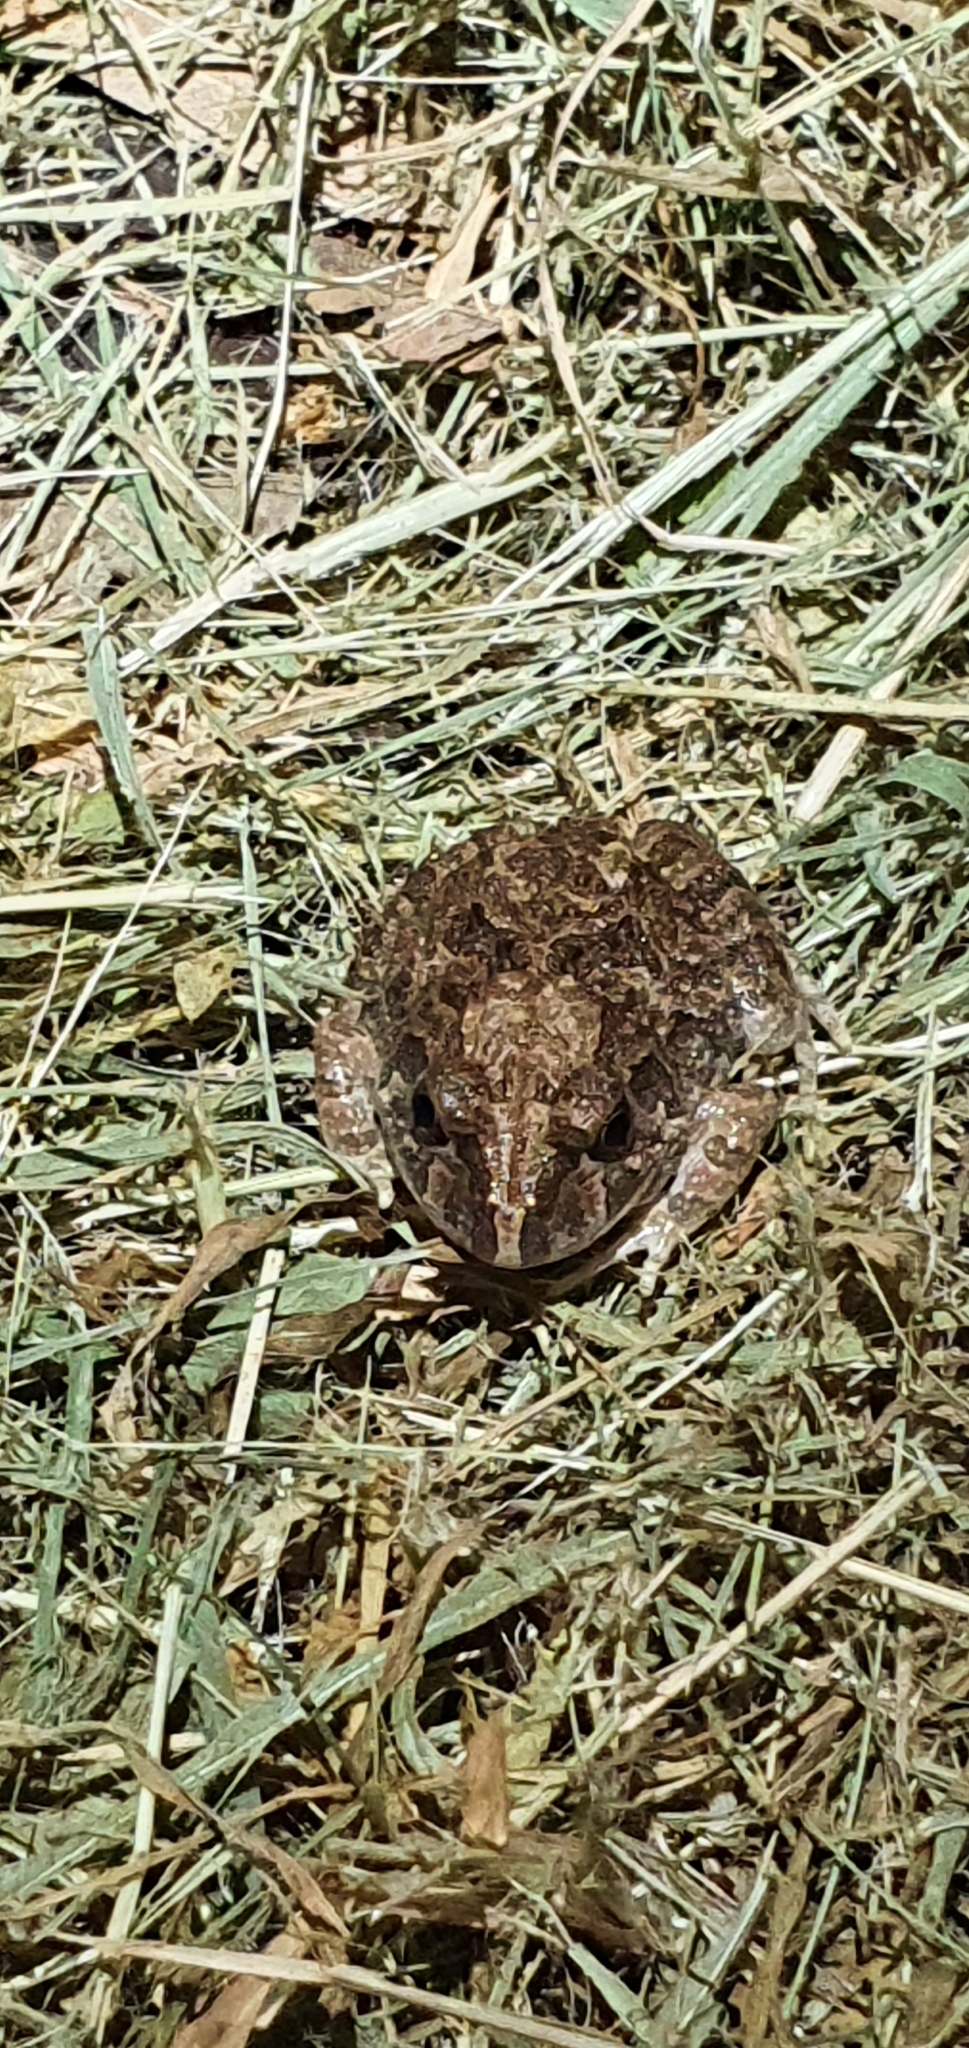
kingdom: Animalia
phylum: Chordata
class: Amphibia
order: Anura
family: Limnodynastidae
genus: Platyplectrum
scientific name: Platyplectrum ornatum
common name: Ornate burrowing frog
